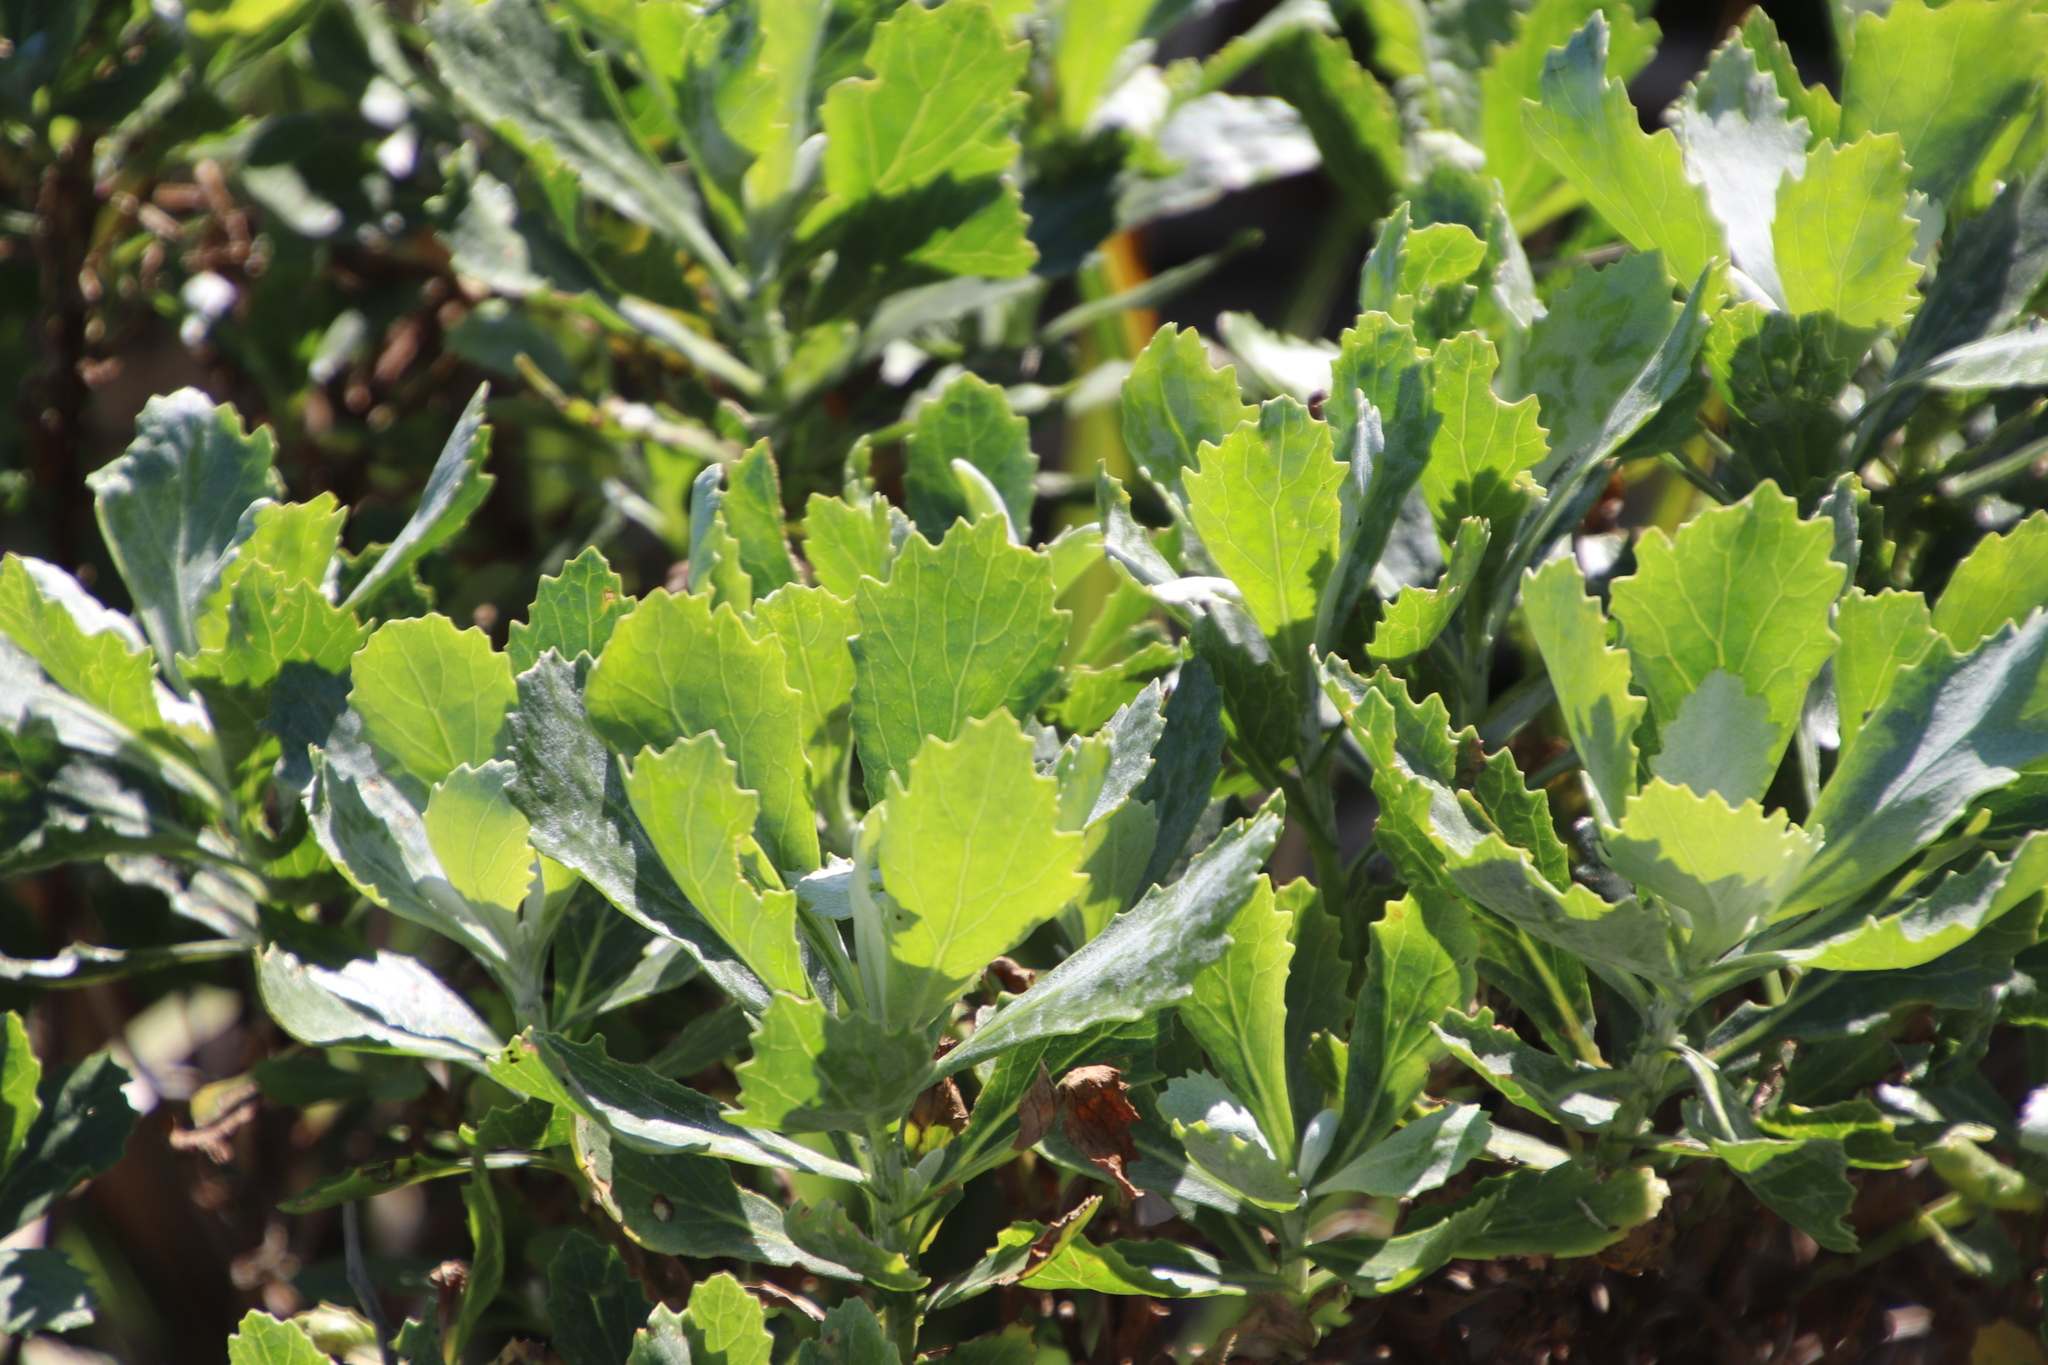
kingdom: Plantae
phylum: Tracheophyta
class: Magnoliopsida
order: Asterales
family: Asteraceae
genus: Senecio
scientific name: Senecio halimifolius
